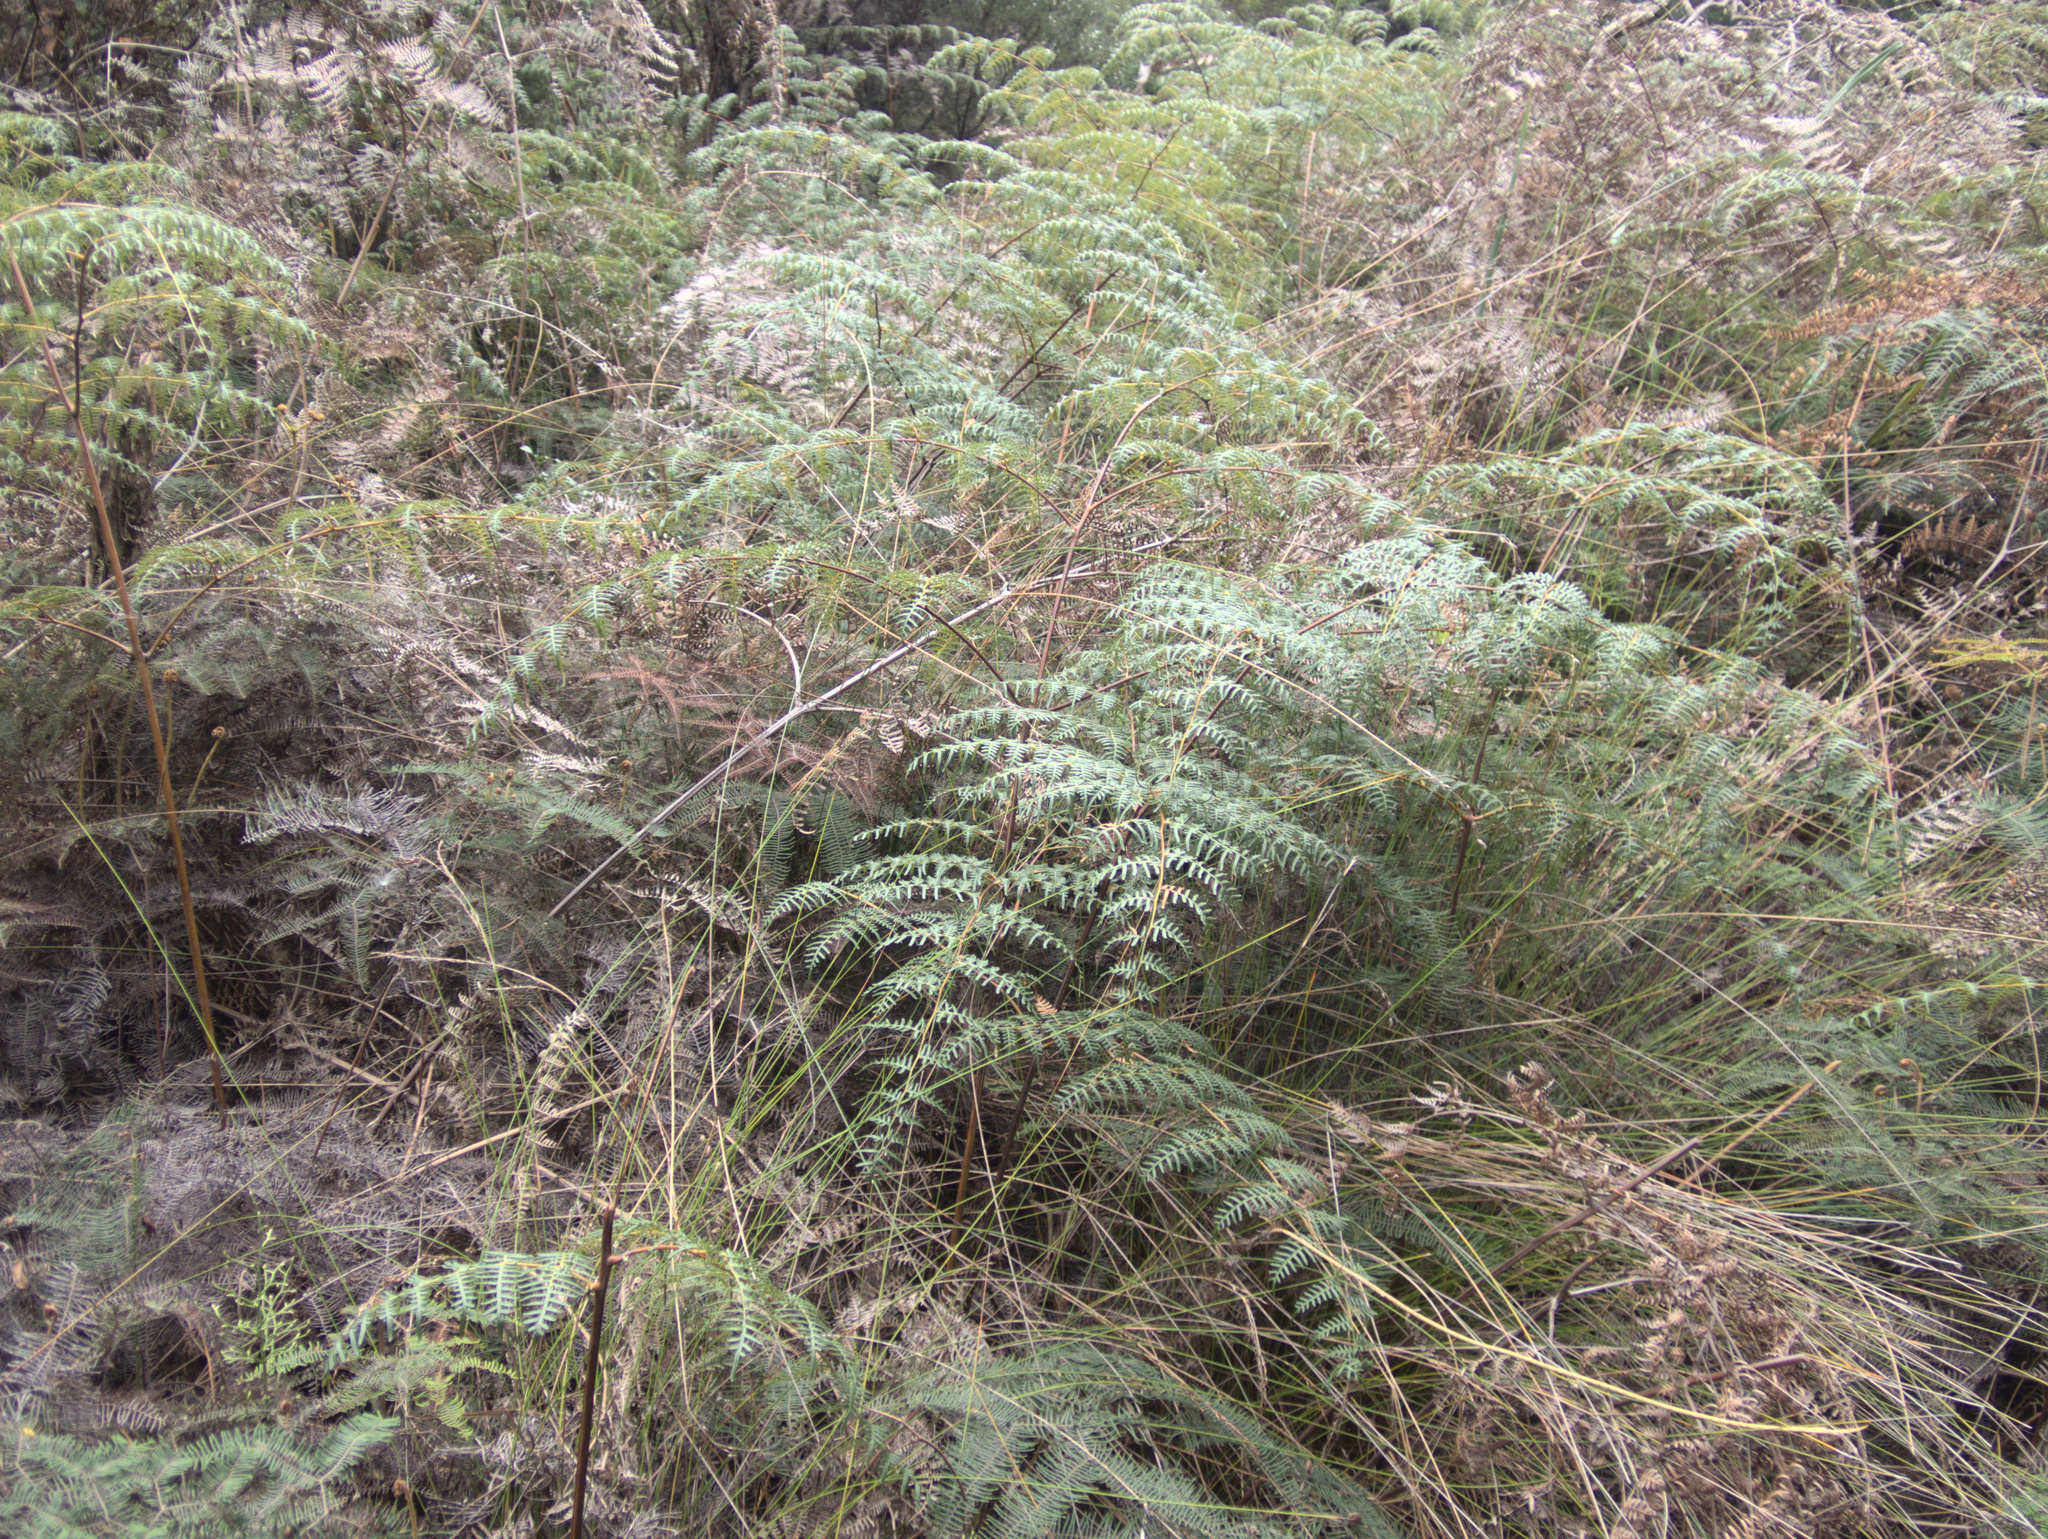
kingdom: Plantae
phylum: Tracheophyta
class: Polypodiopsida
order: Polypodiales
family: Dennstaedtiaceae
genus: Pteridium
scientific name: Pteridium esculentum
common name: Bracken fern
